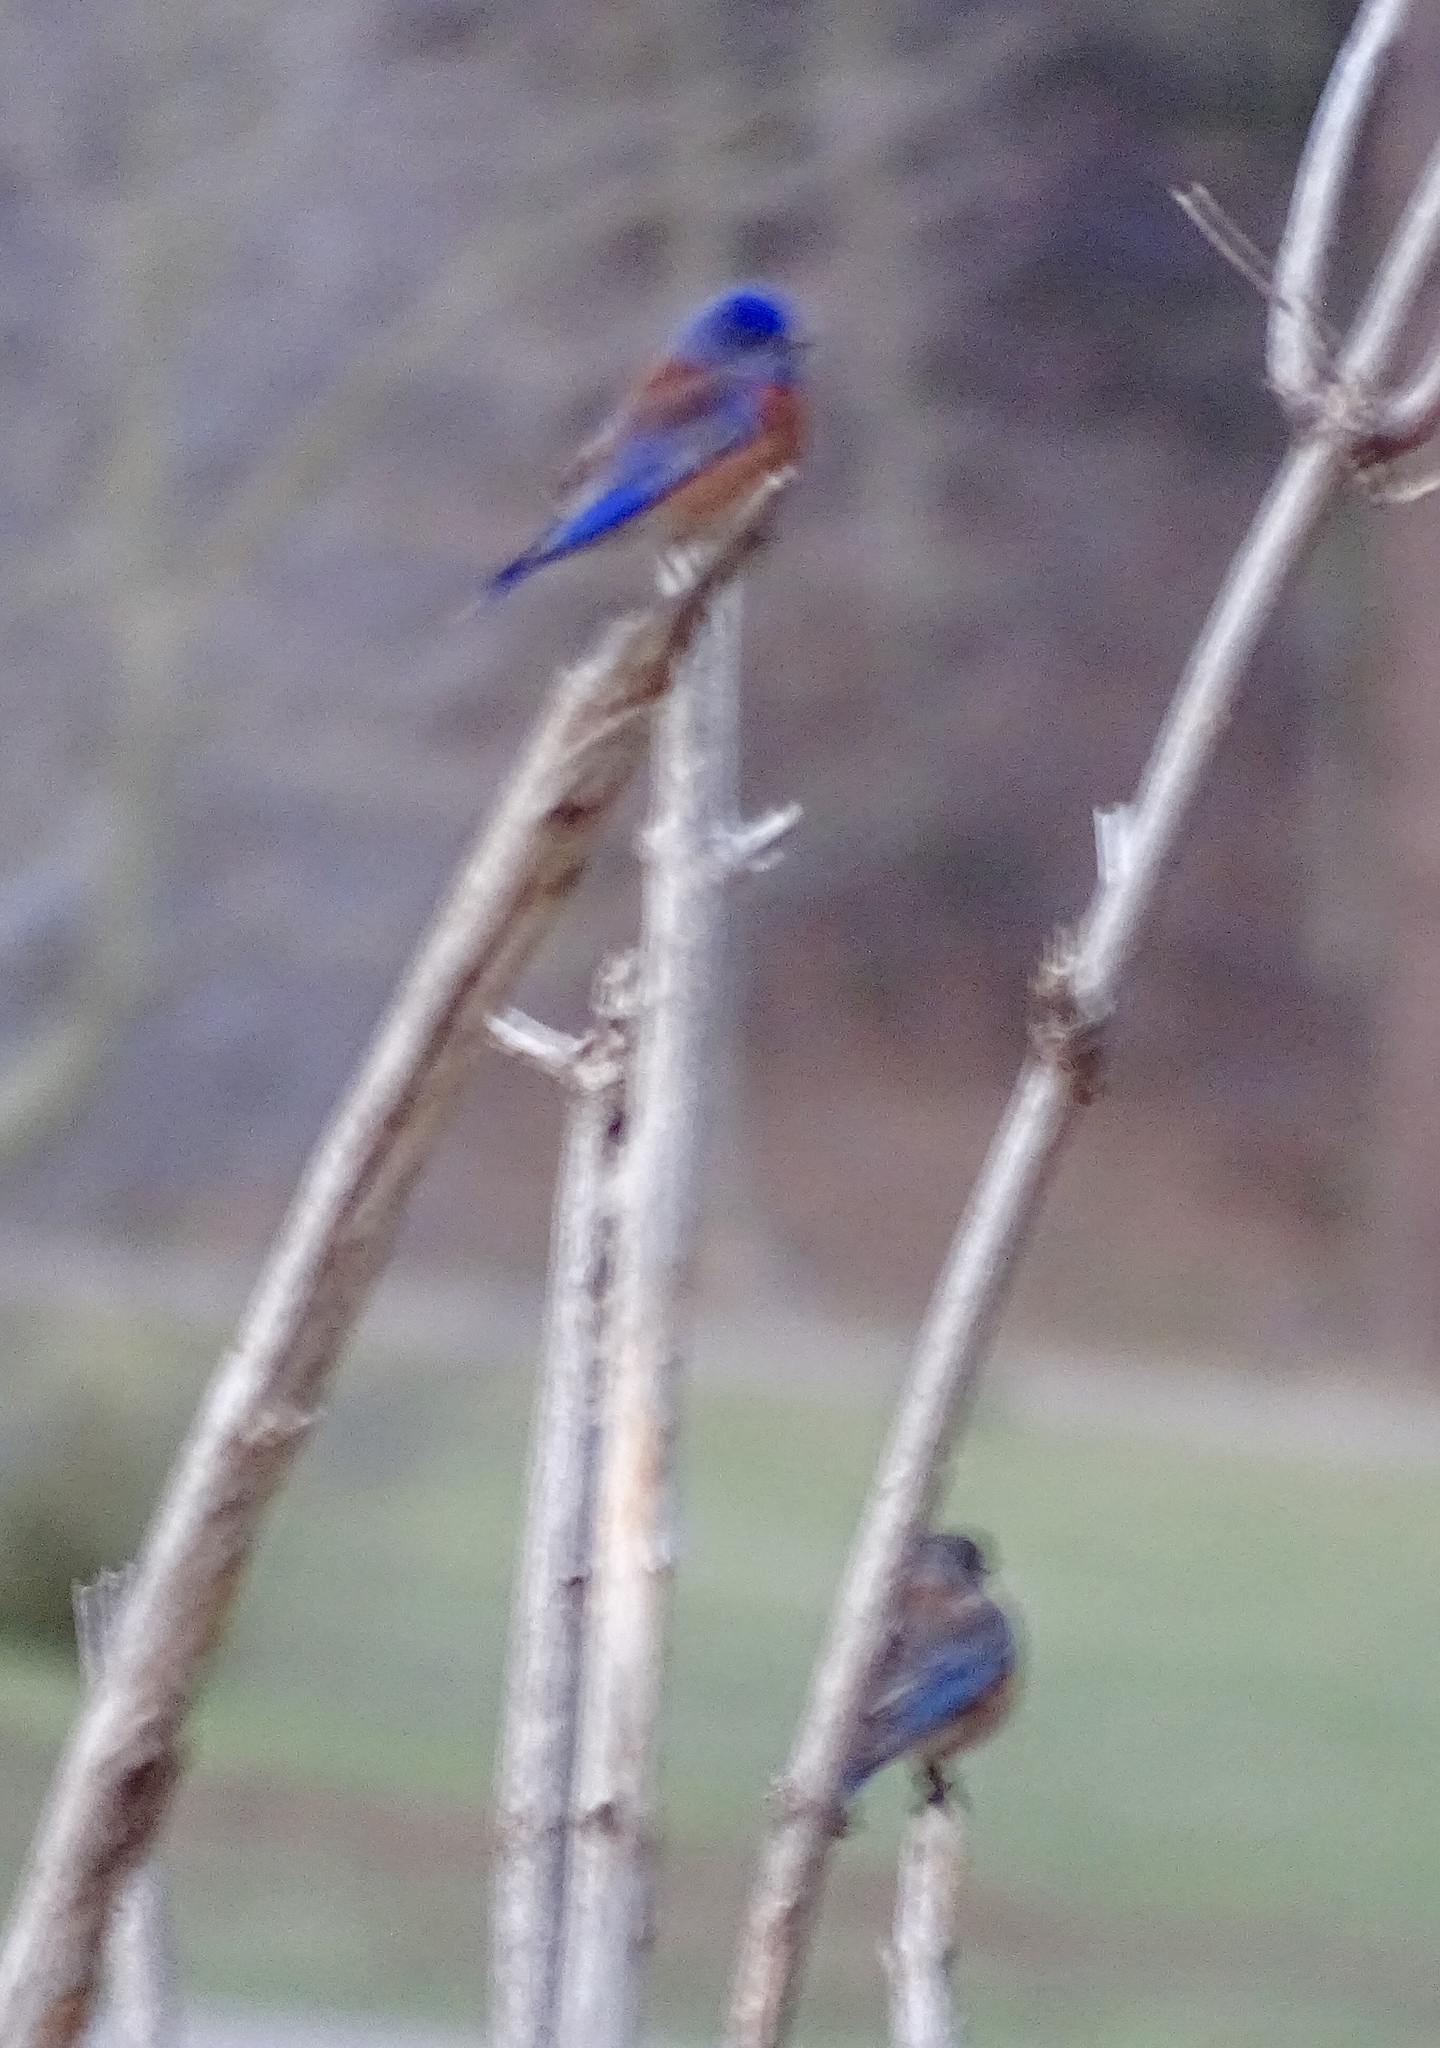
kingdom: Animalia
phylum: Chordata
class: Aves
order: Passeriformes
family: Turdidae
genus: Sialia
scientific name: Sialia mexicana
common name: Western bluebird
